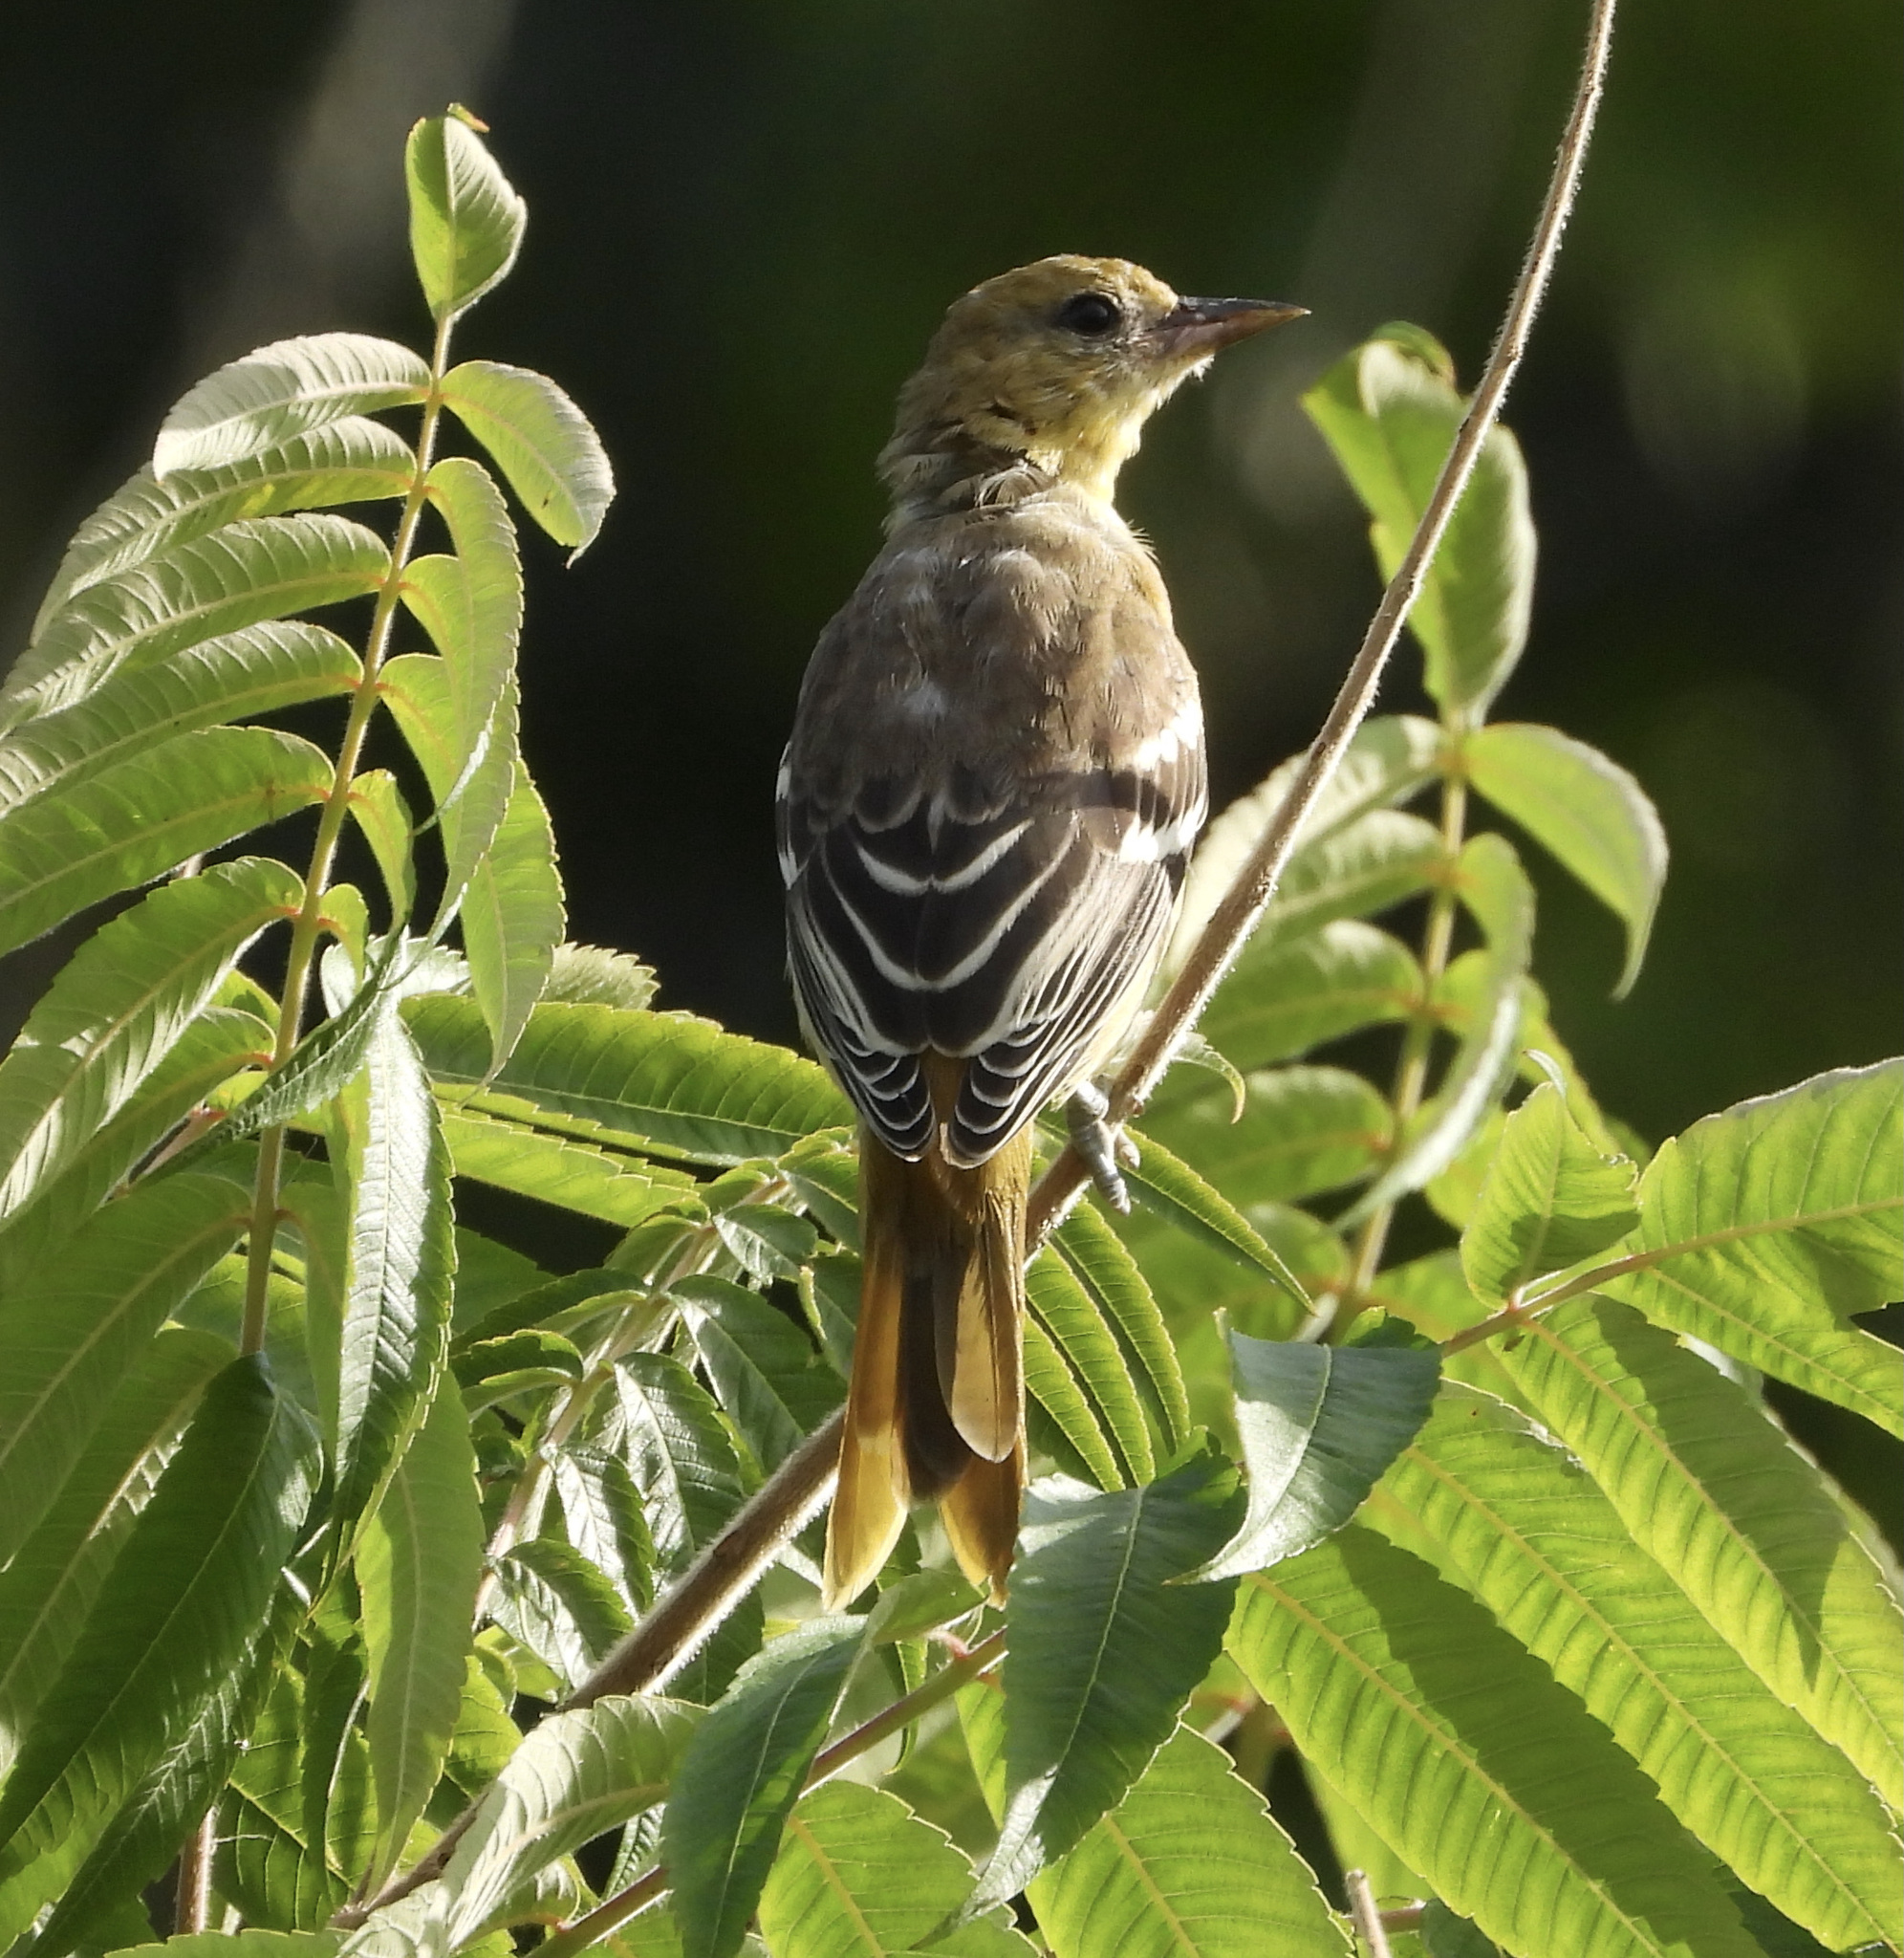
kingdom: Animalia
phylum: Chordata
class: Aves
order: Passeriformes
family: Icteridae
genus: Icterus
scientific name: Icterus galbula
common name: Baltimore oriole
